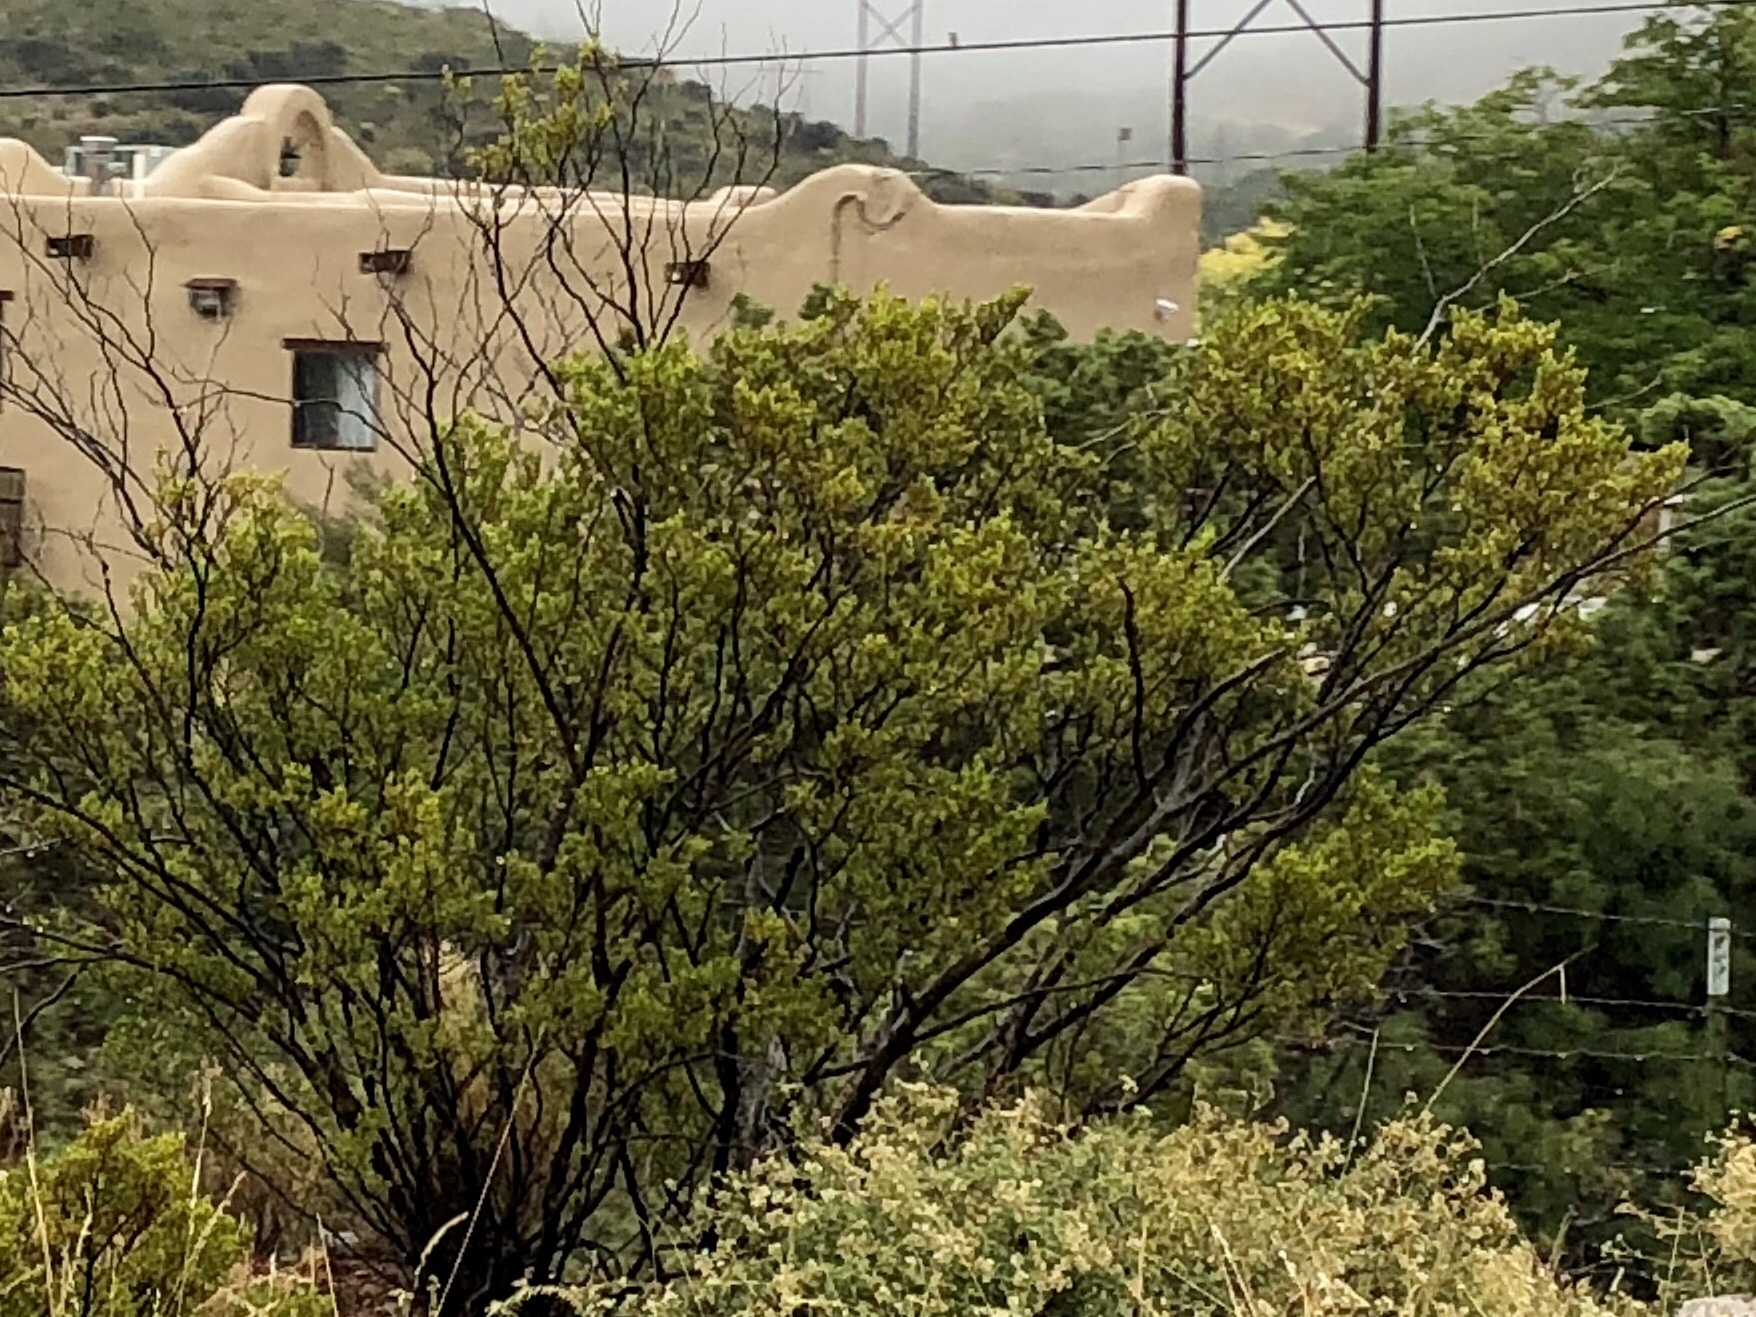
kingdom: Plantae
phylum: Tracheophyta
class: Magnoliopsida
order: Zygophyllales
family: Zygophyllaceae
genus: Larrea
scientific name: Larrea tridentata
